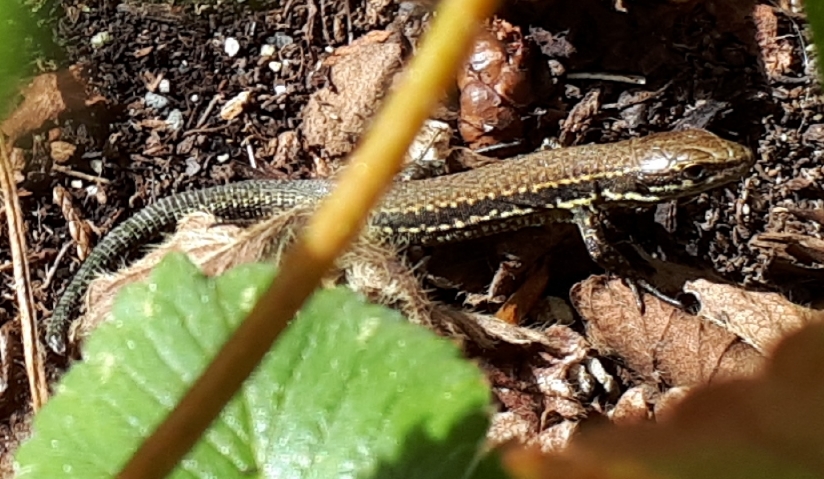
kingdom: Animalia
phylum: Chordata
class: Squamata
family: Lacertidae
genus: Podarcis
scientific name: Podarcis muralis
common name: Common wall lizard
